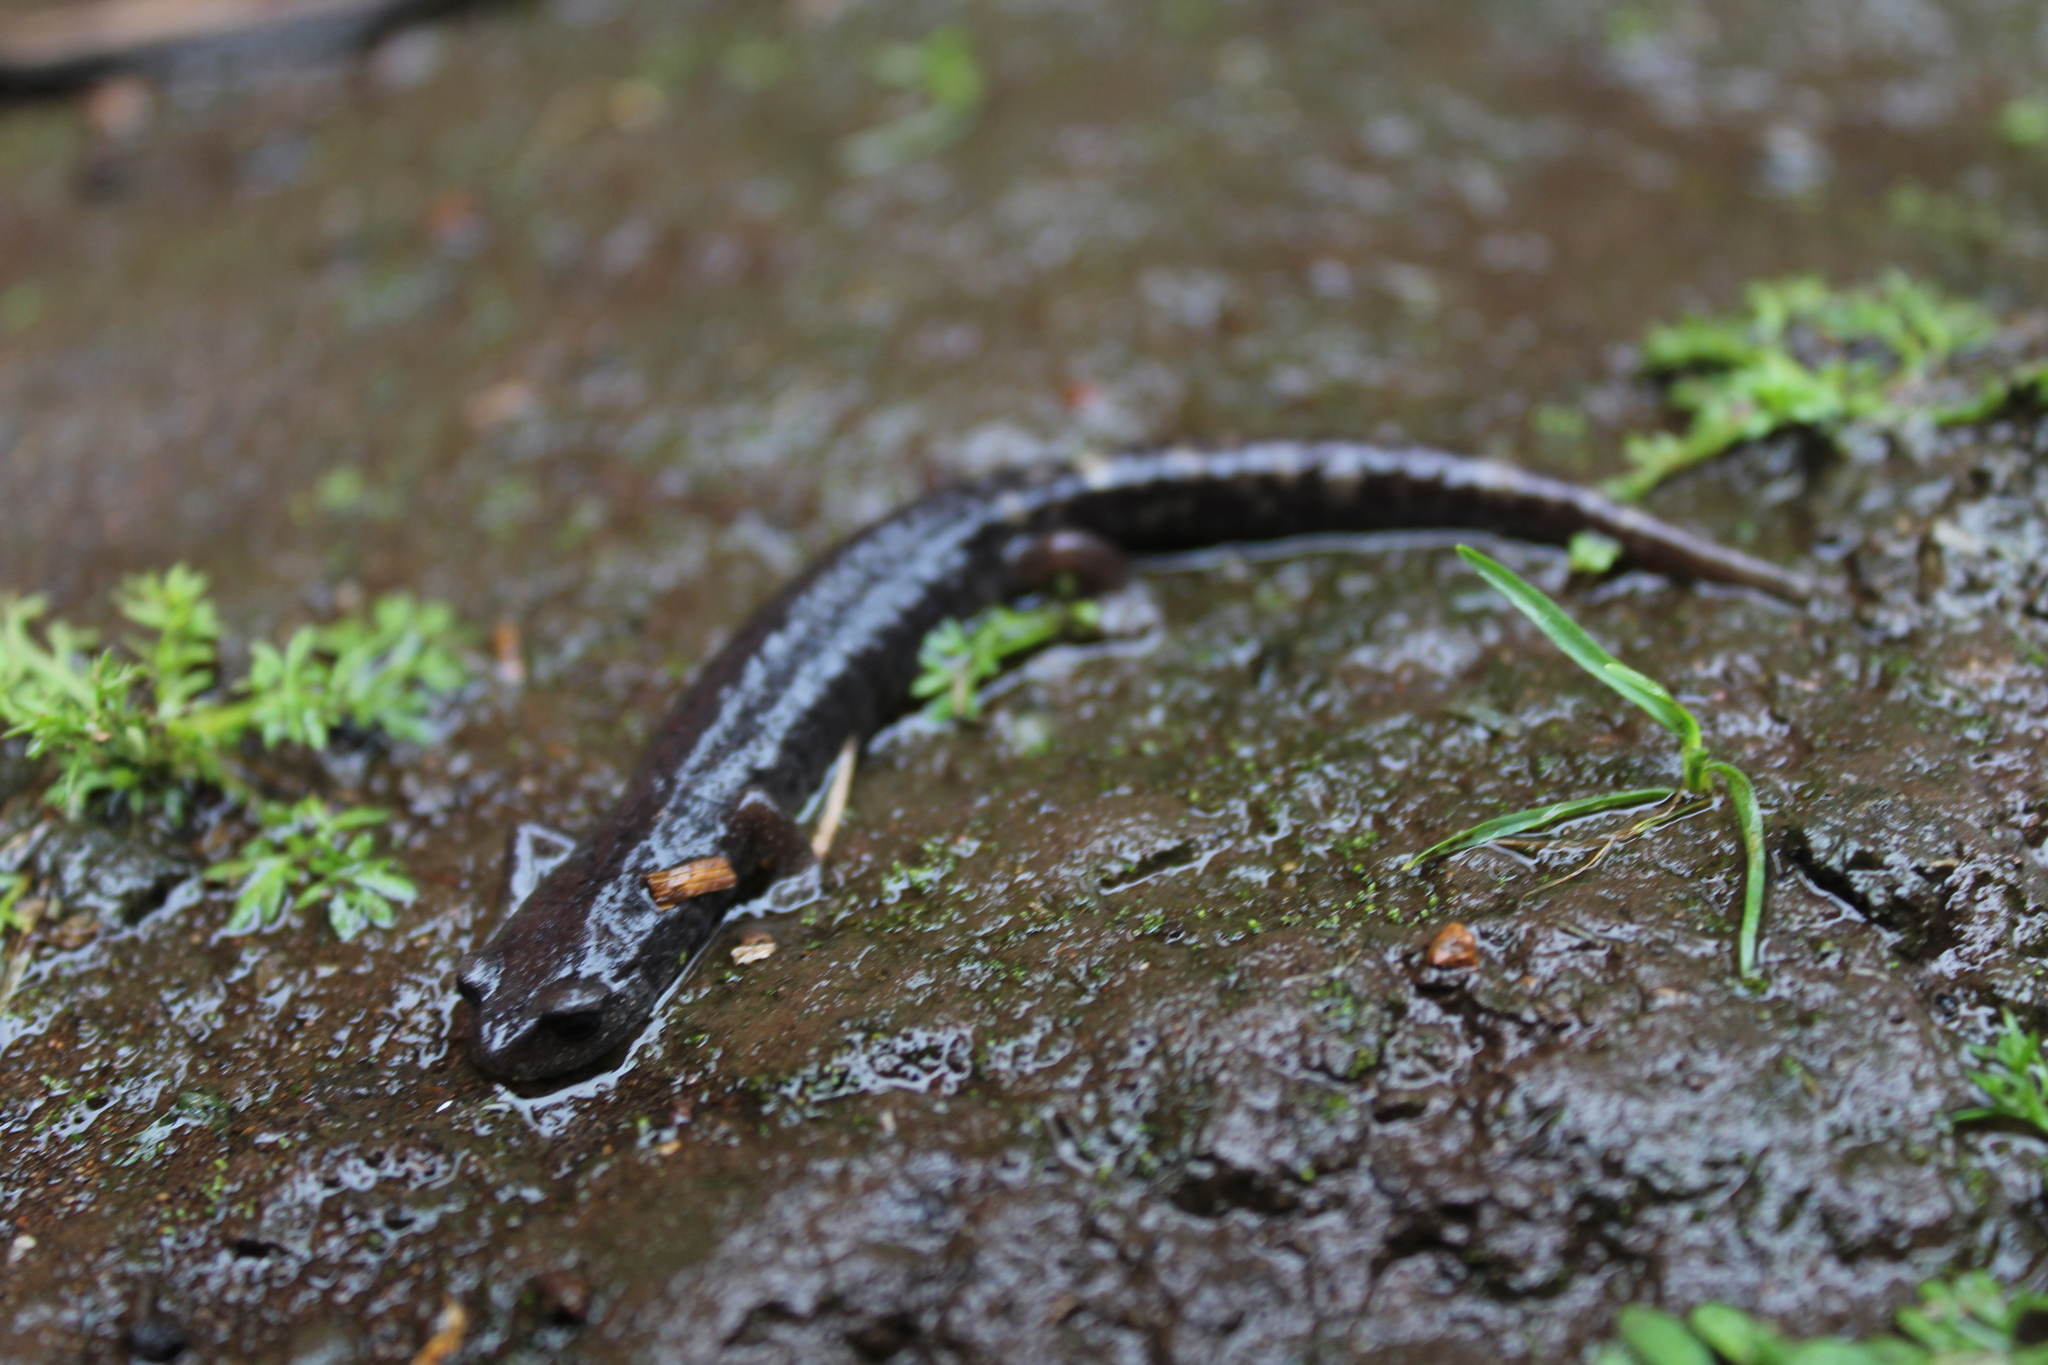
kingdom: Animalia
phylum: Chordata
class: Amphibia
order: Caudata
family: Plethodontidae
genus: Aquiloeurycea
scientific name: Aquiloeurycea cephalica
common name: Chunky false brook salamander
